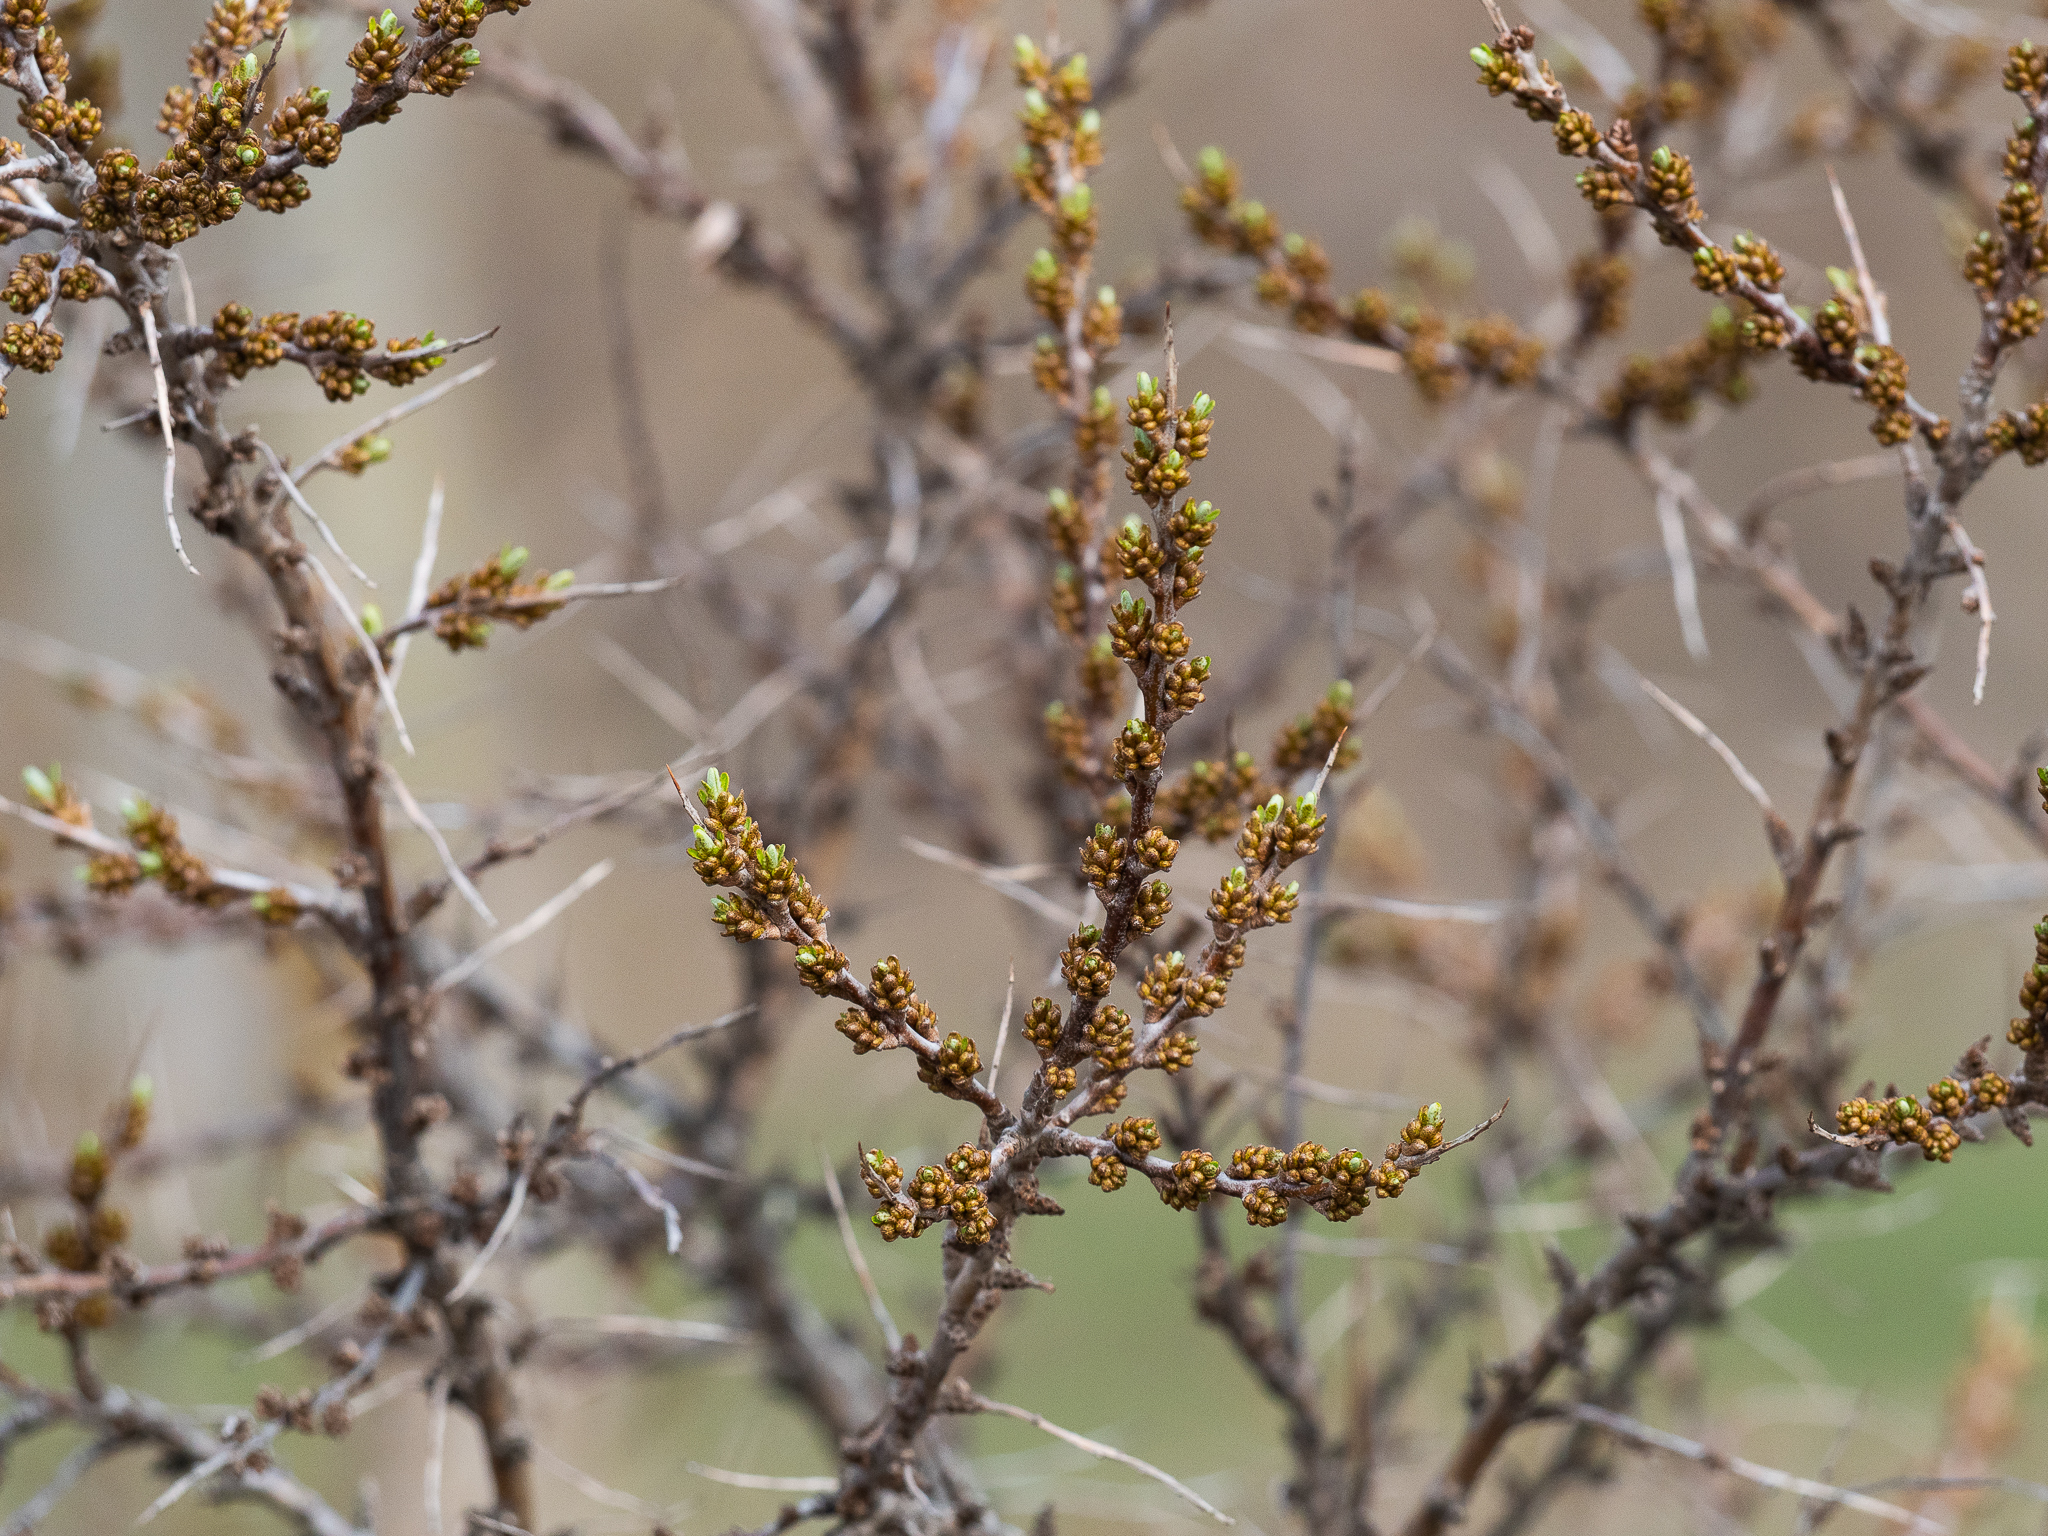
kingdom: Plantae
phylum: Tracheophyta
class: Magnoliopsida
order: Rosales
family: Elaeagnaceae
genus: Hippophae
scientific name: Hippophae rhamnoides
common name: Sea-buckthorn
